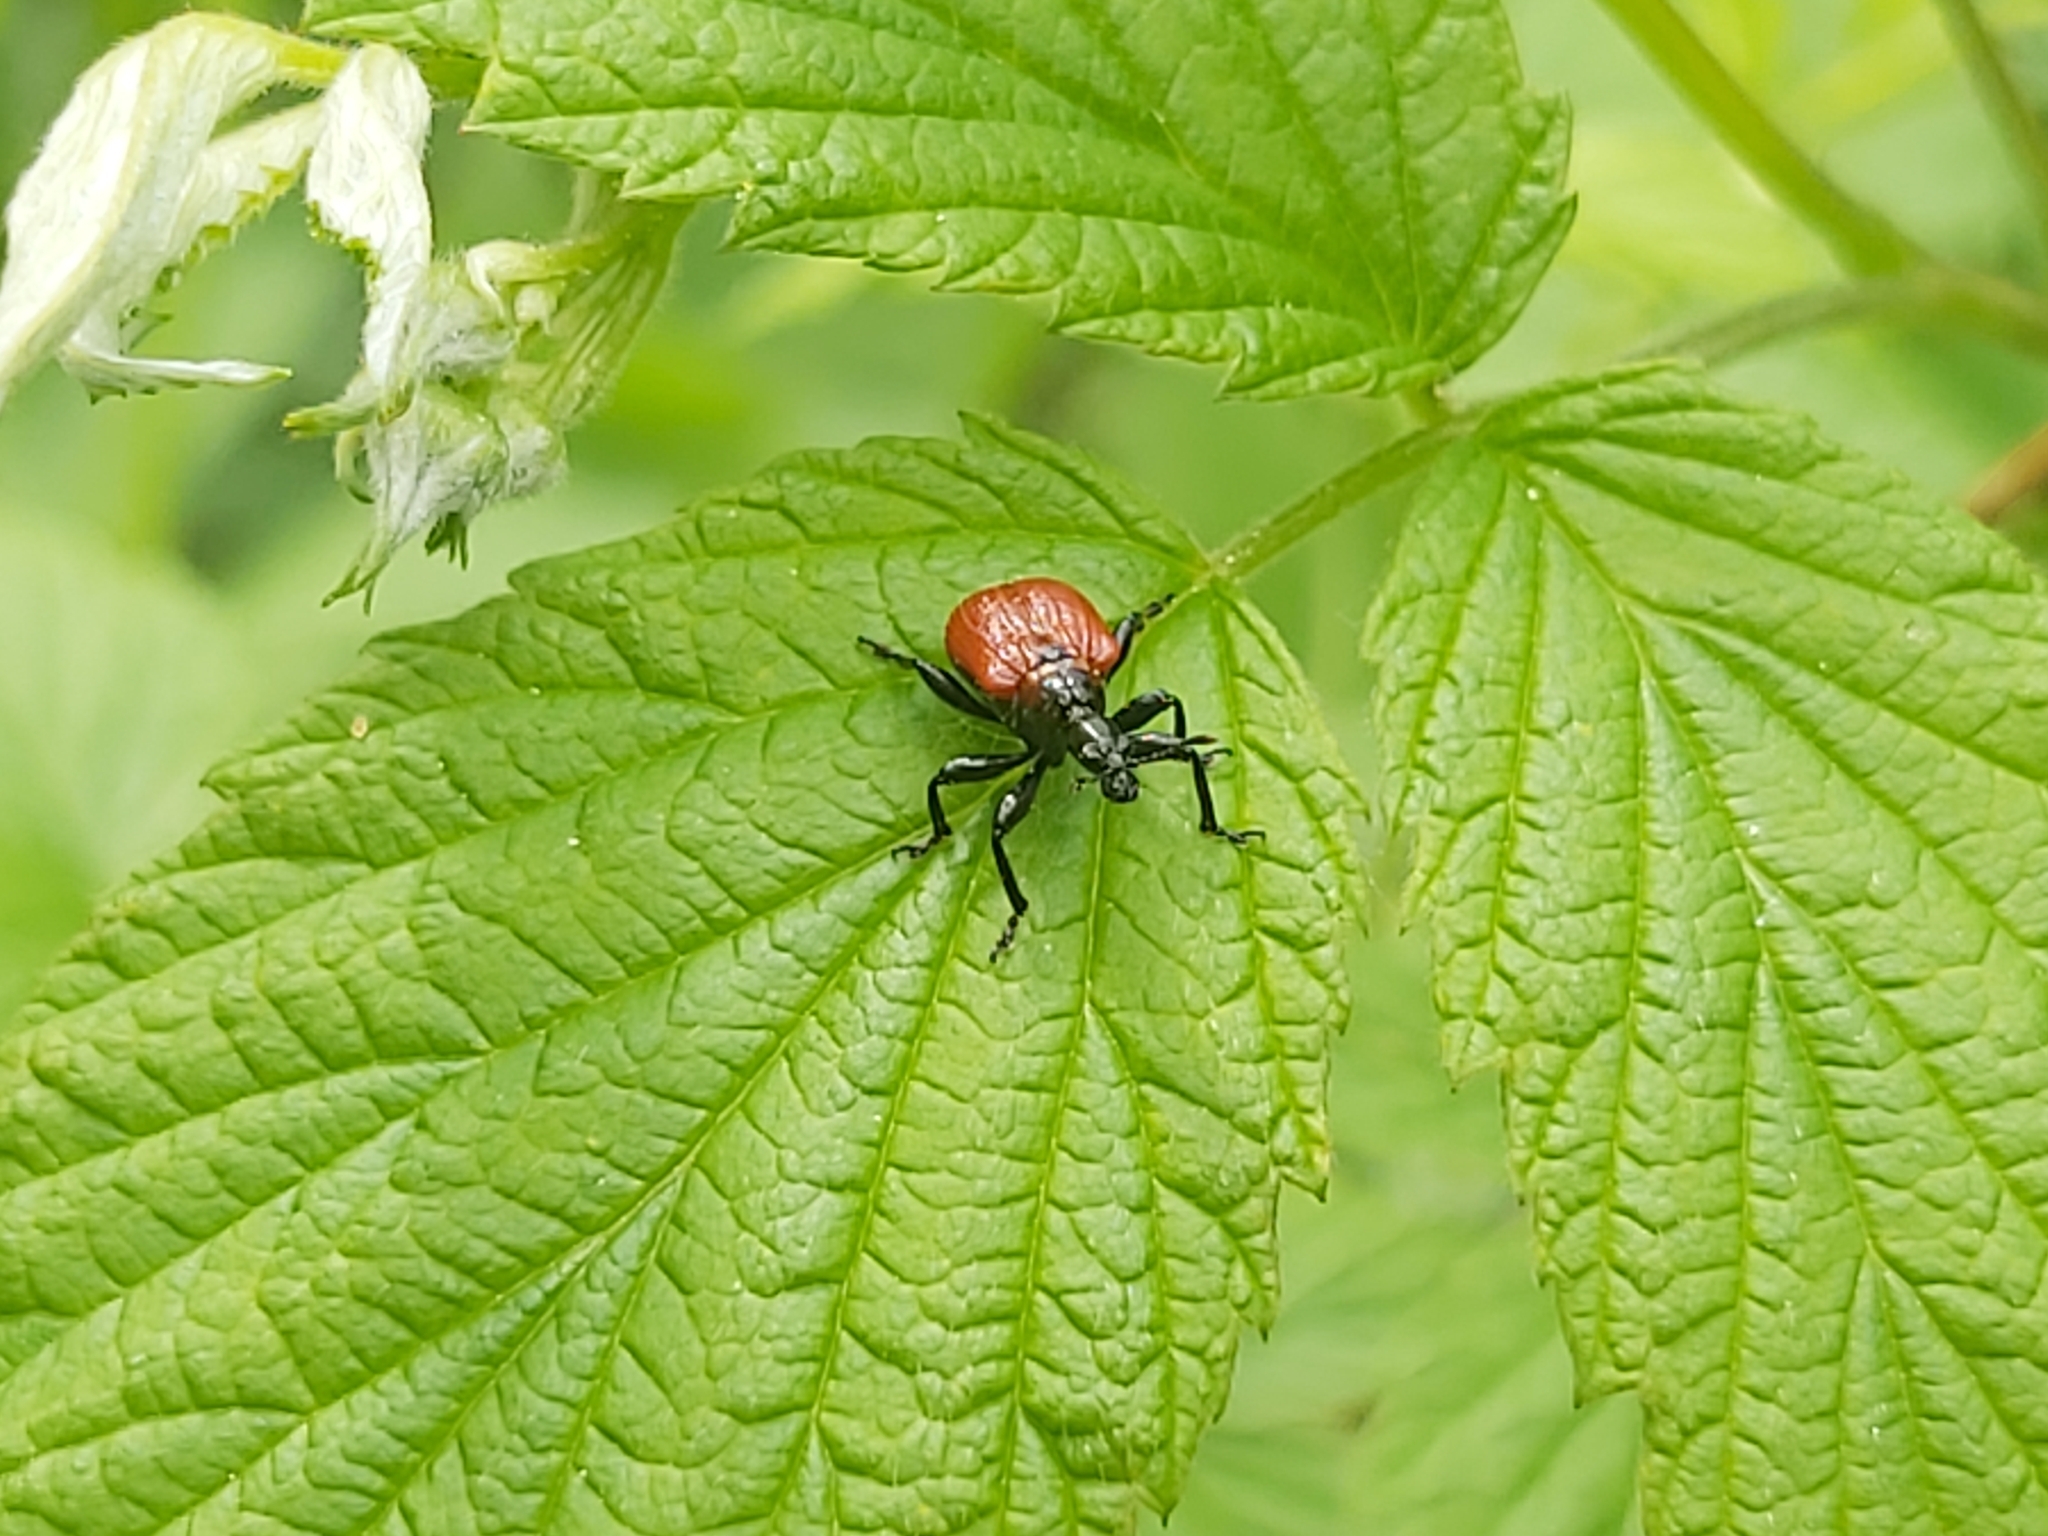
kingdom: Animalia
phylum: Arthropoda
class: Insecta
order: Coleoptera
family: Attelabidae
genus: Apoderus
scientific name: Apoderus coryli
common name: Hazel leaf roller
